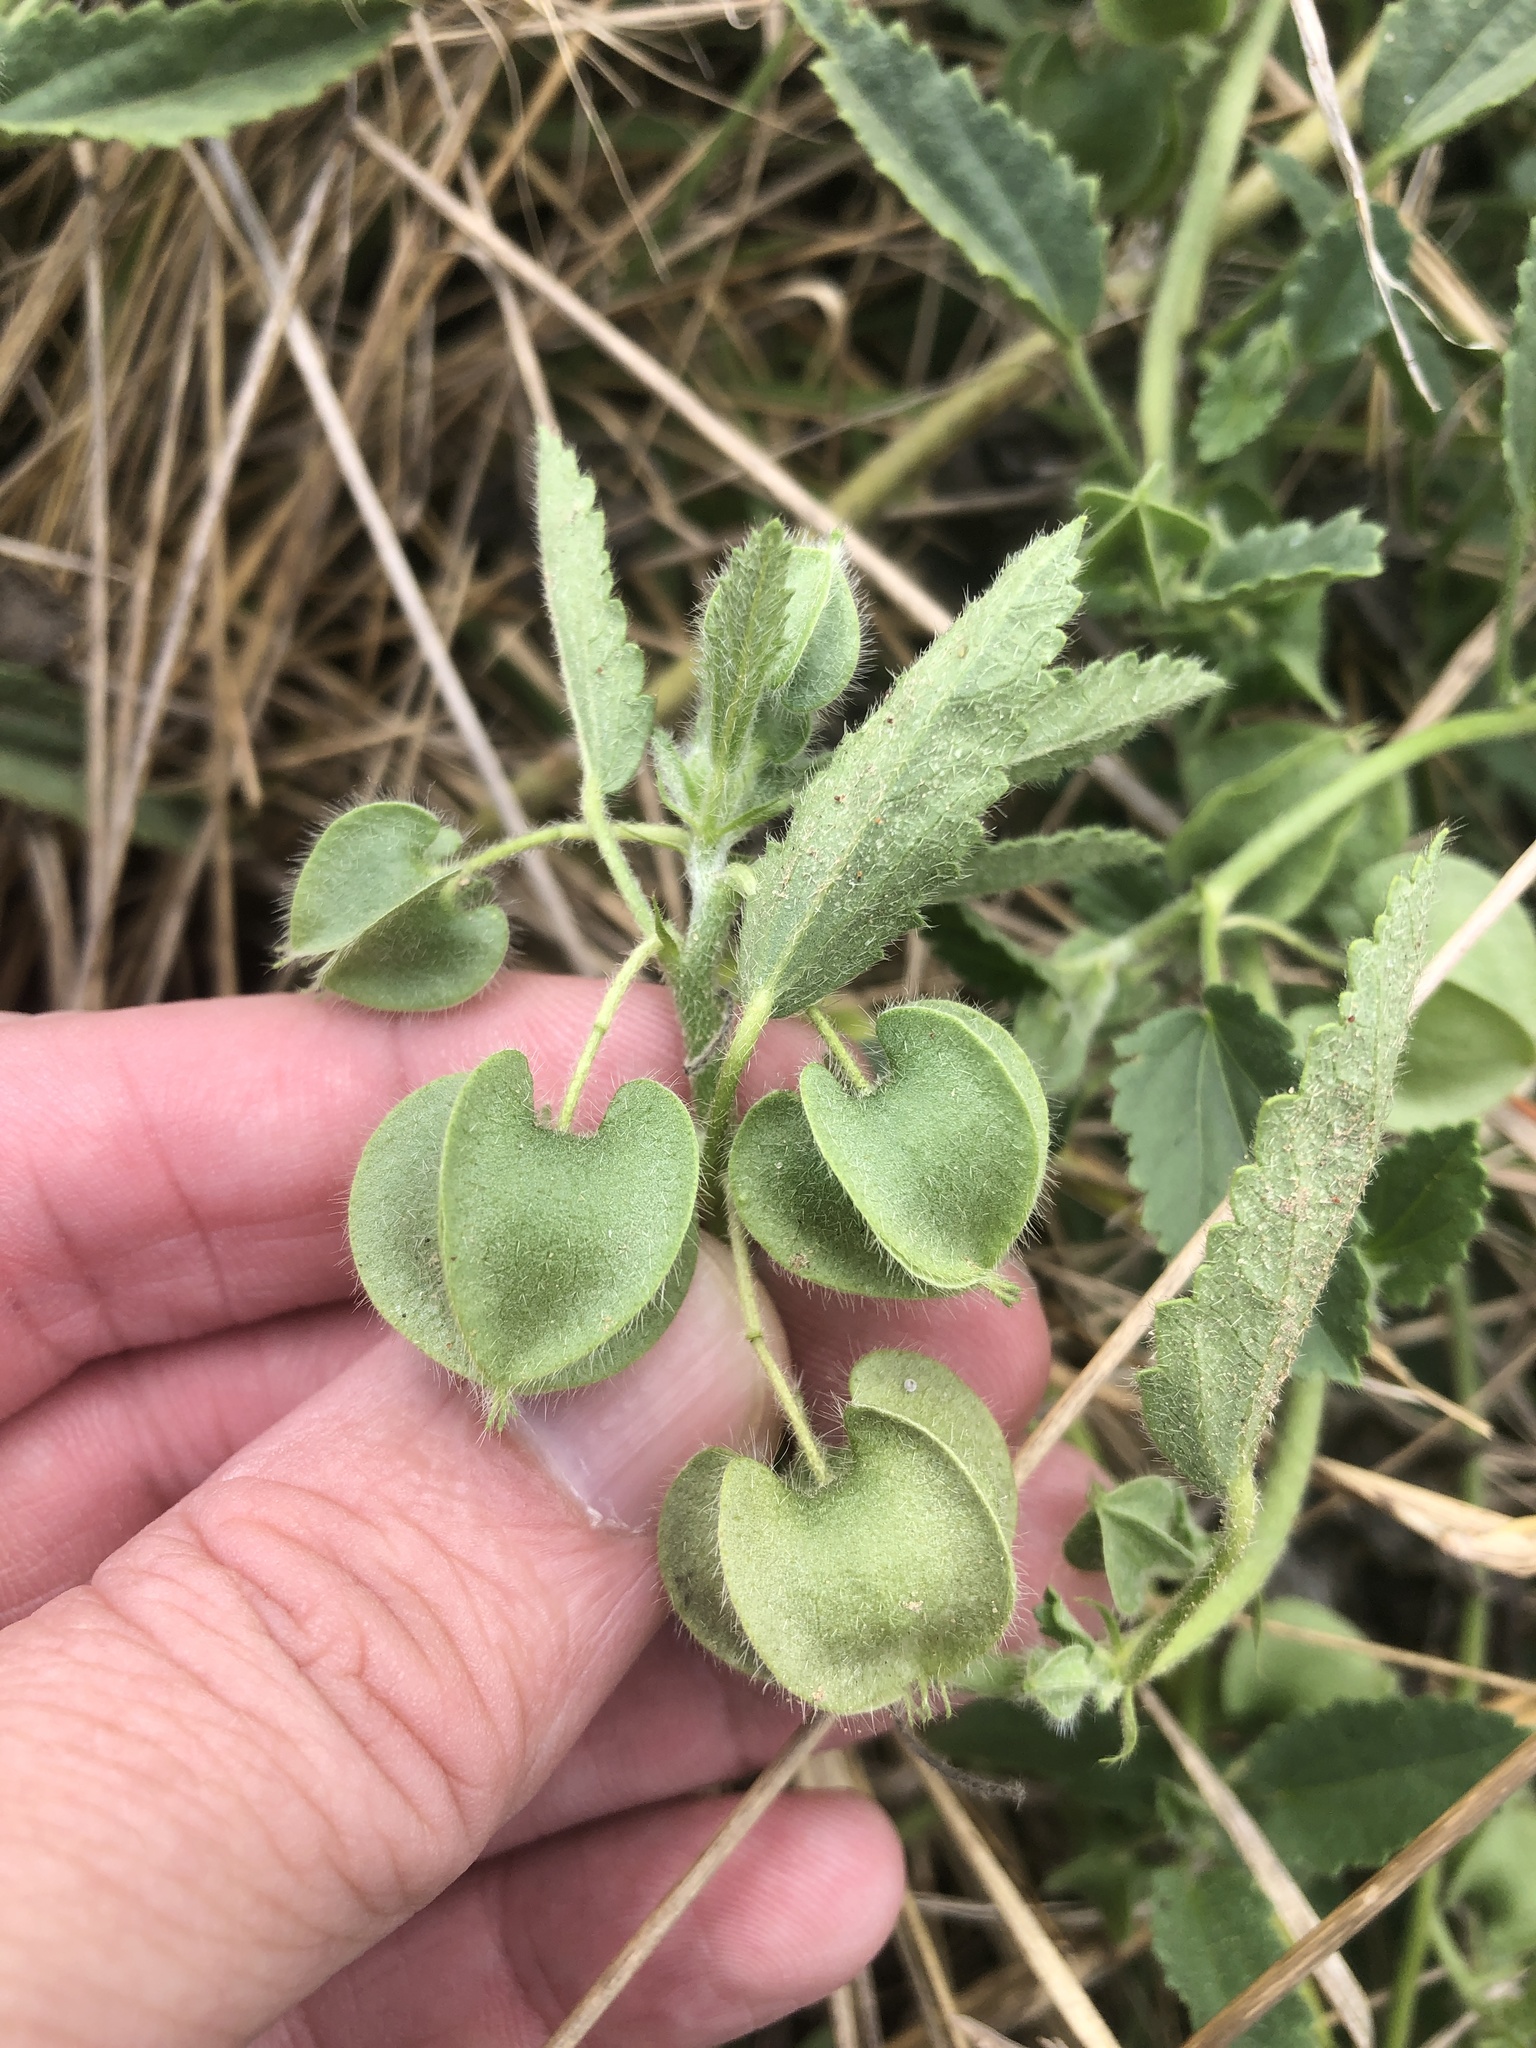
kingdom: Plantae
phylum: Tracheophyta
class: Magnoliopsida
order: Malvales
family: Malvaceae
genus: Rhynchosida
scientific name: Rhynchosida physocalyx
